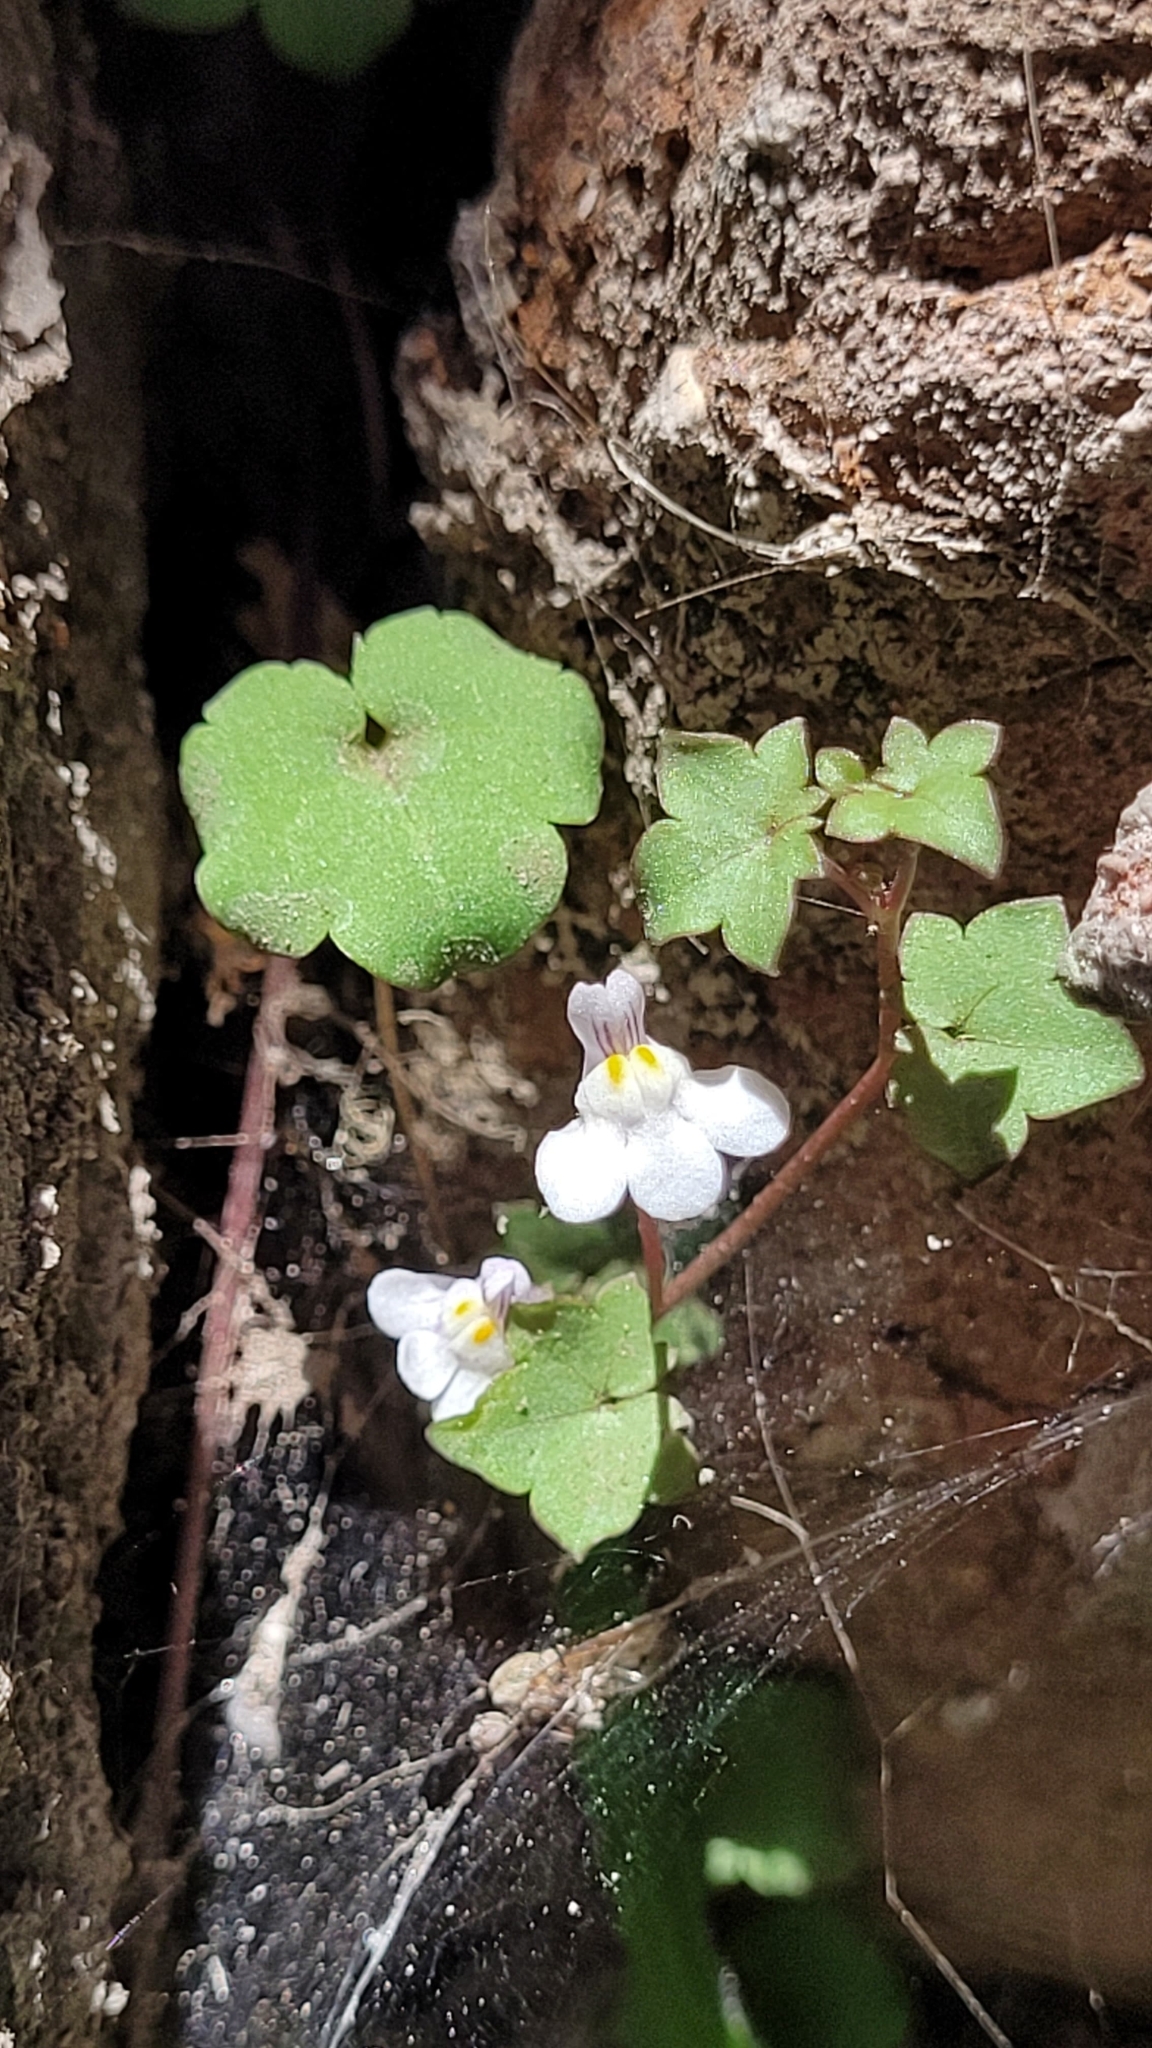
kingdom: Plantae
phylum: Tracheophyta
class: Magnoliopsida
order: Lamiales
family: Plantaginaceae
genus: Cymbalaria
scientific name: Cymbalaria muralis
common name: Ivy-leaved toadflax
